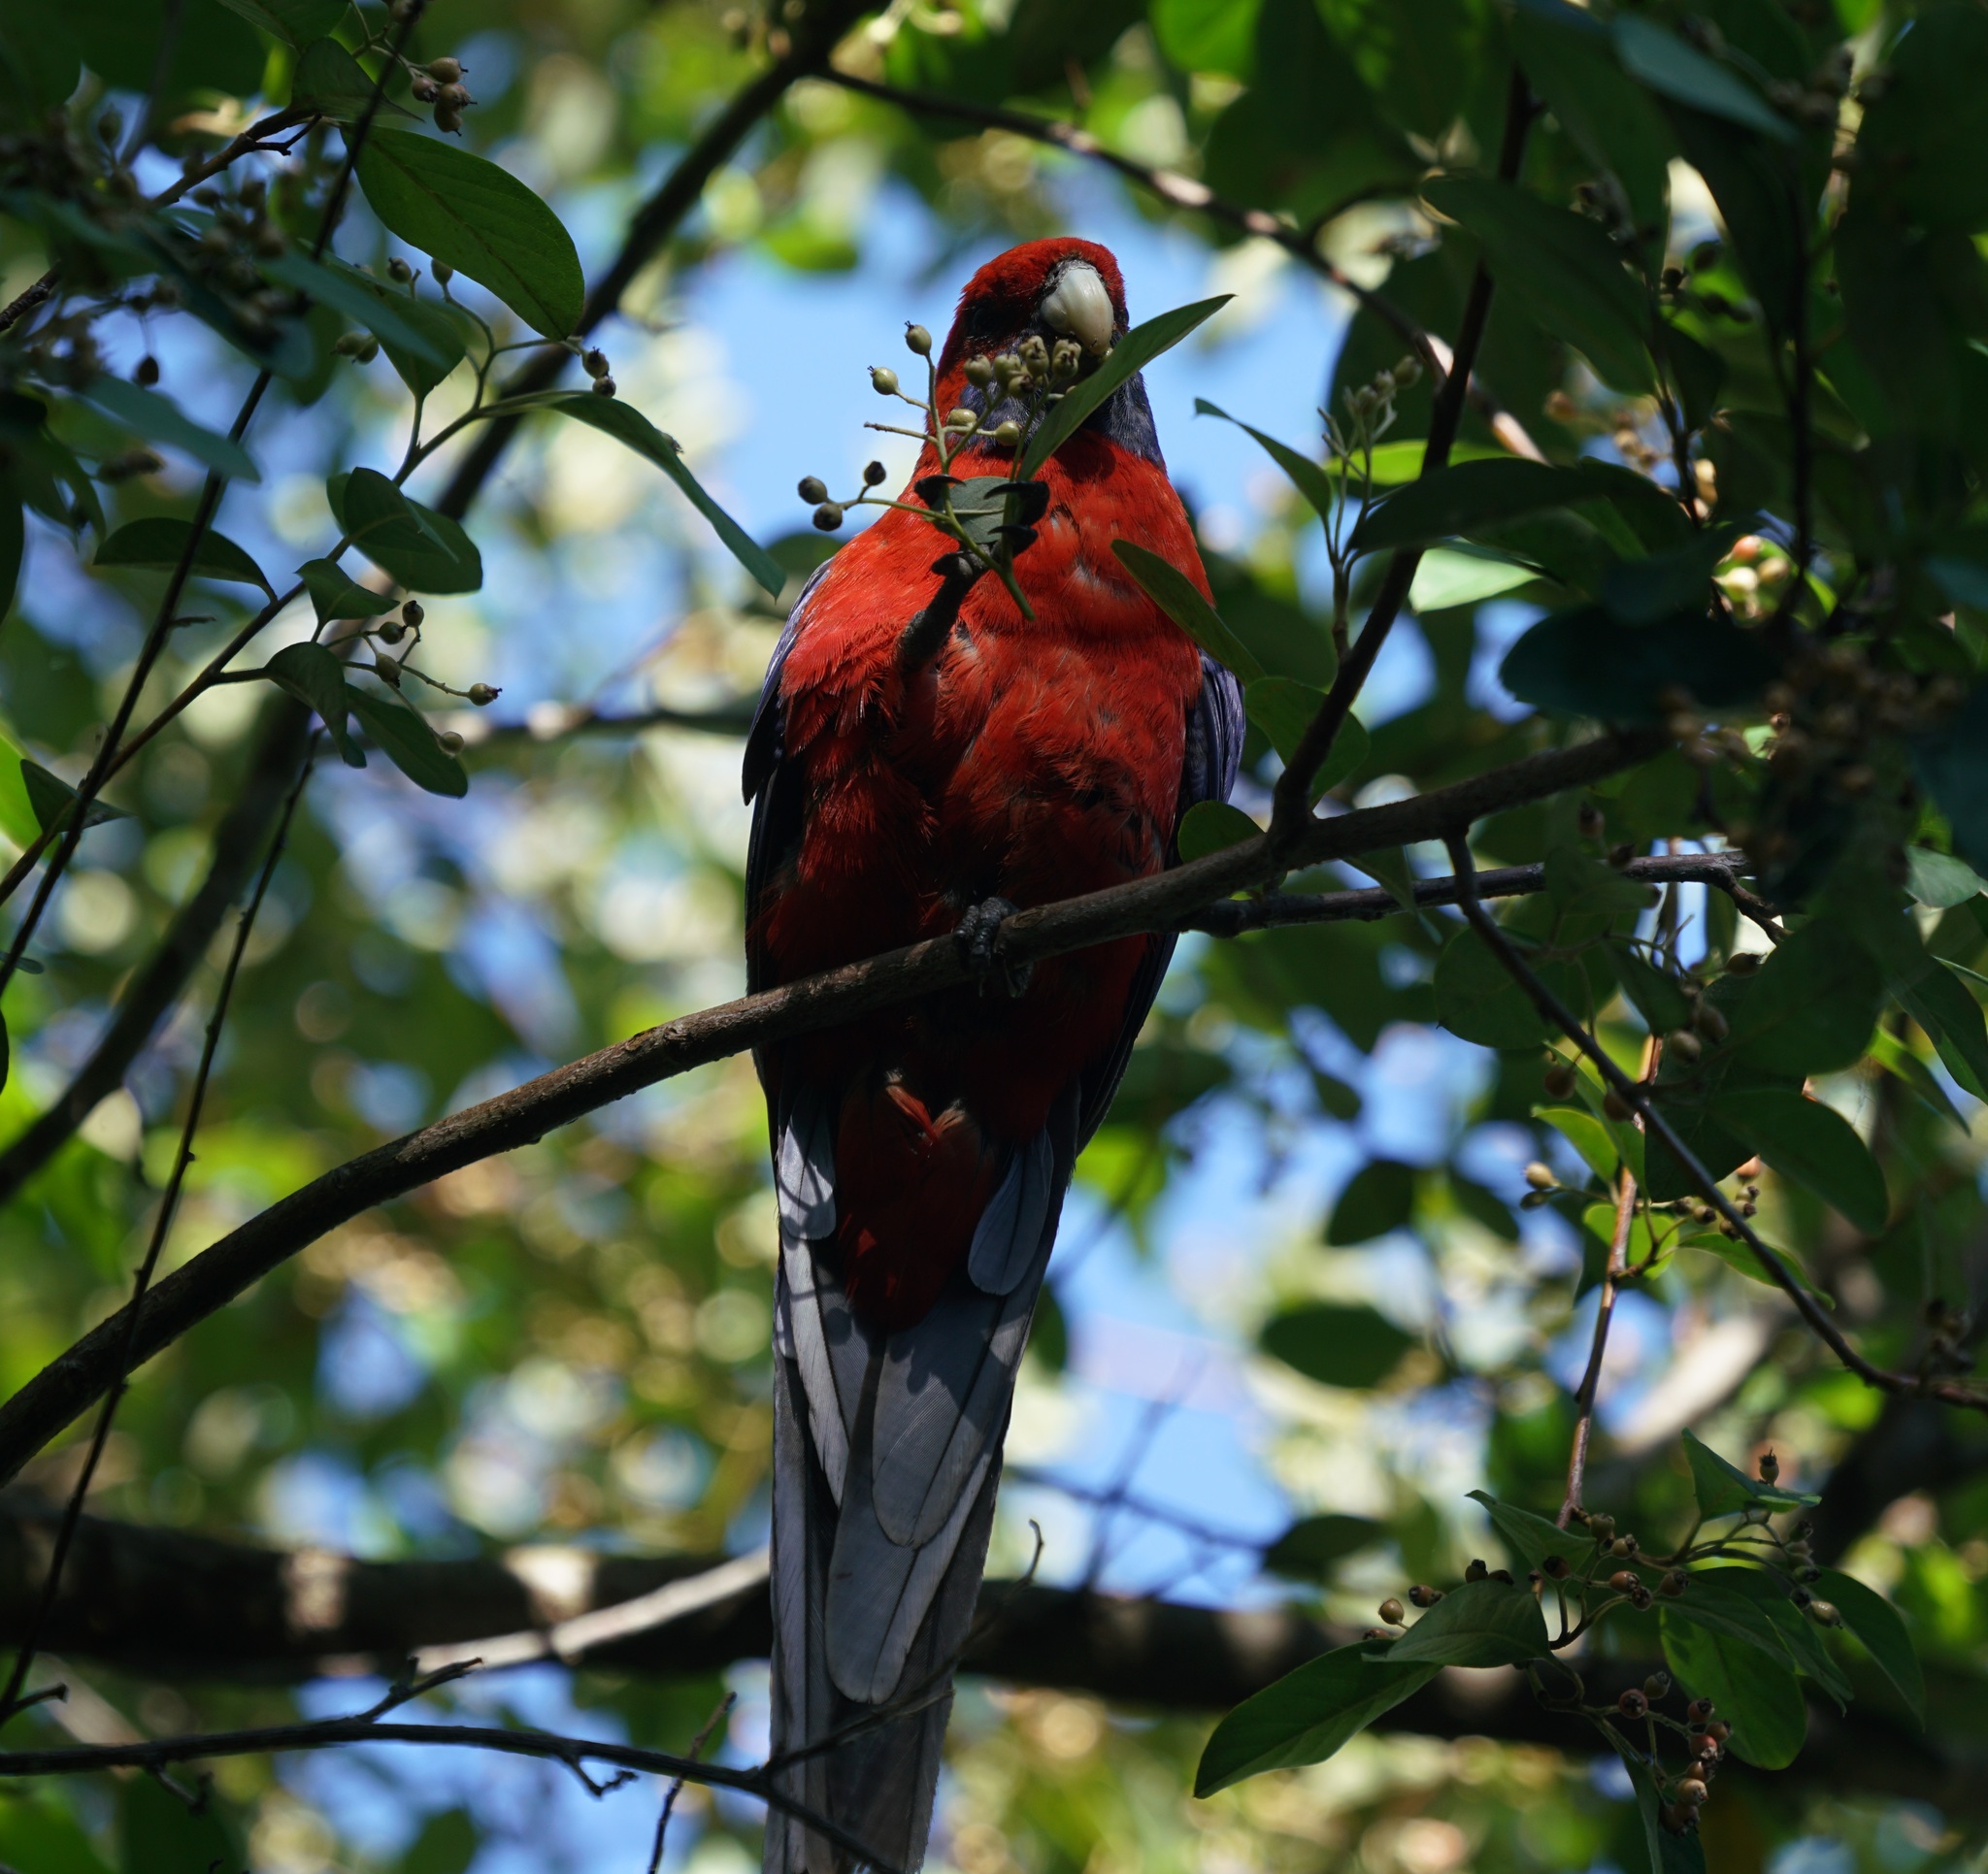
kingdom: Animalia
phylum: Chordata
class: Aves
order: Psittaciformes
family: Psittacidae
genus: Platycercus
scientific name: Platycercus elegans
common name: Crimson rosella
